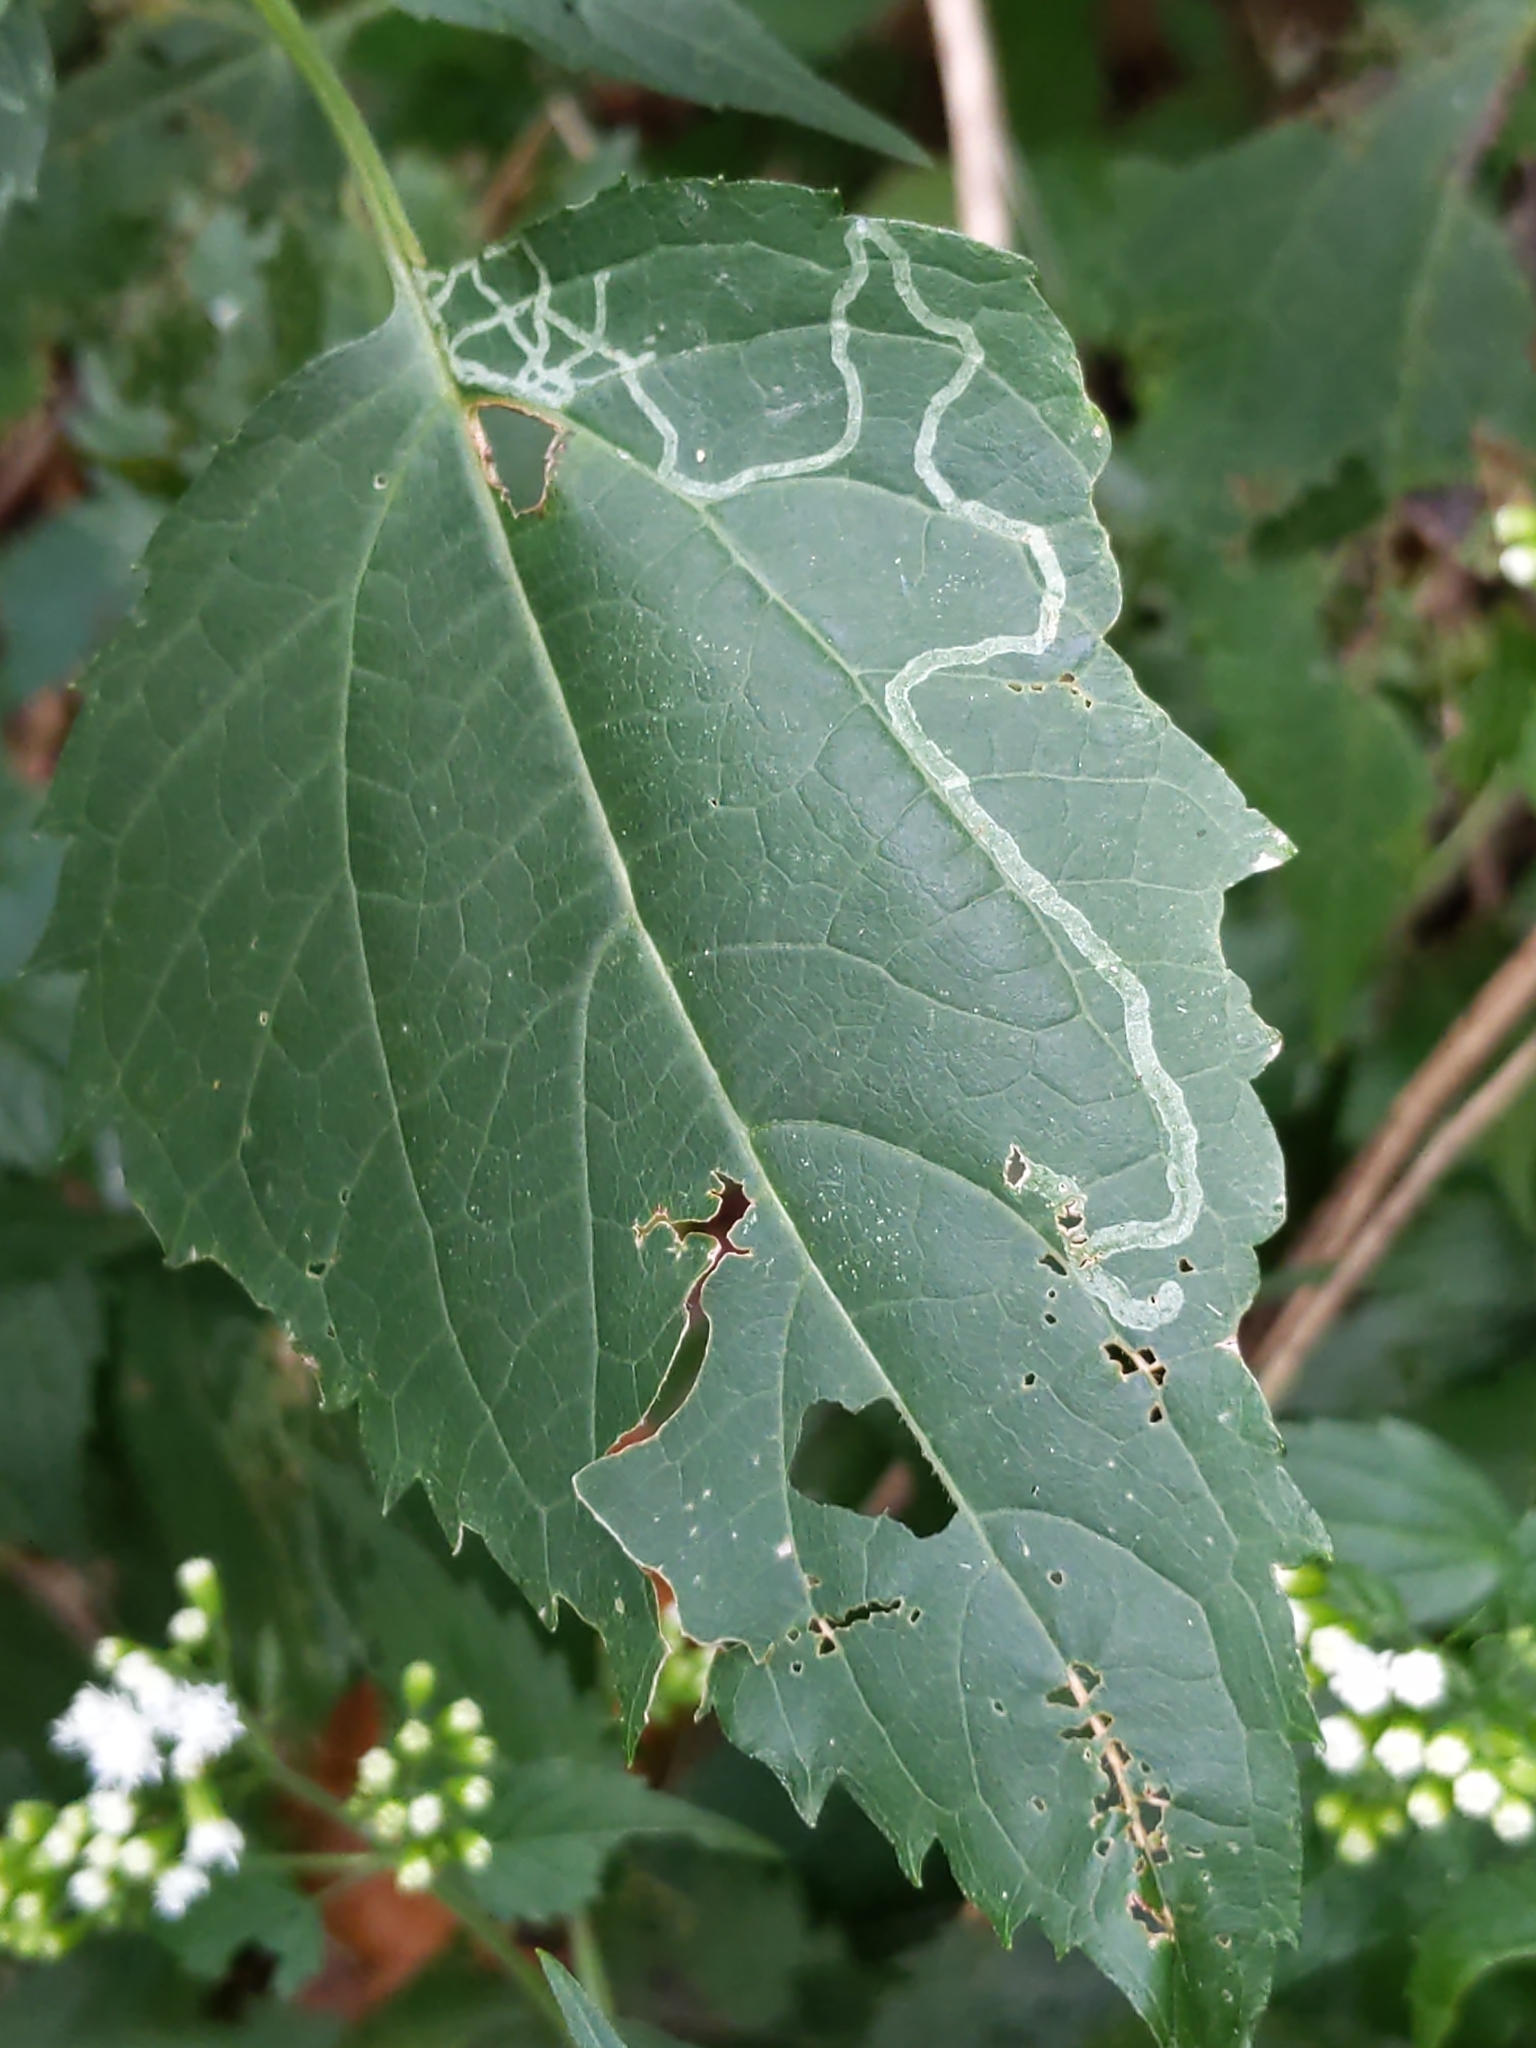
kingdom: Animalia
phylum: Arthropoda
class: Insecta
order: Diptera
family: Agromyzidae
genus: Liriomyza
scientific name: Liriomyza
